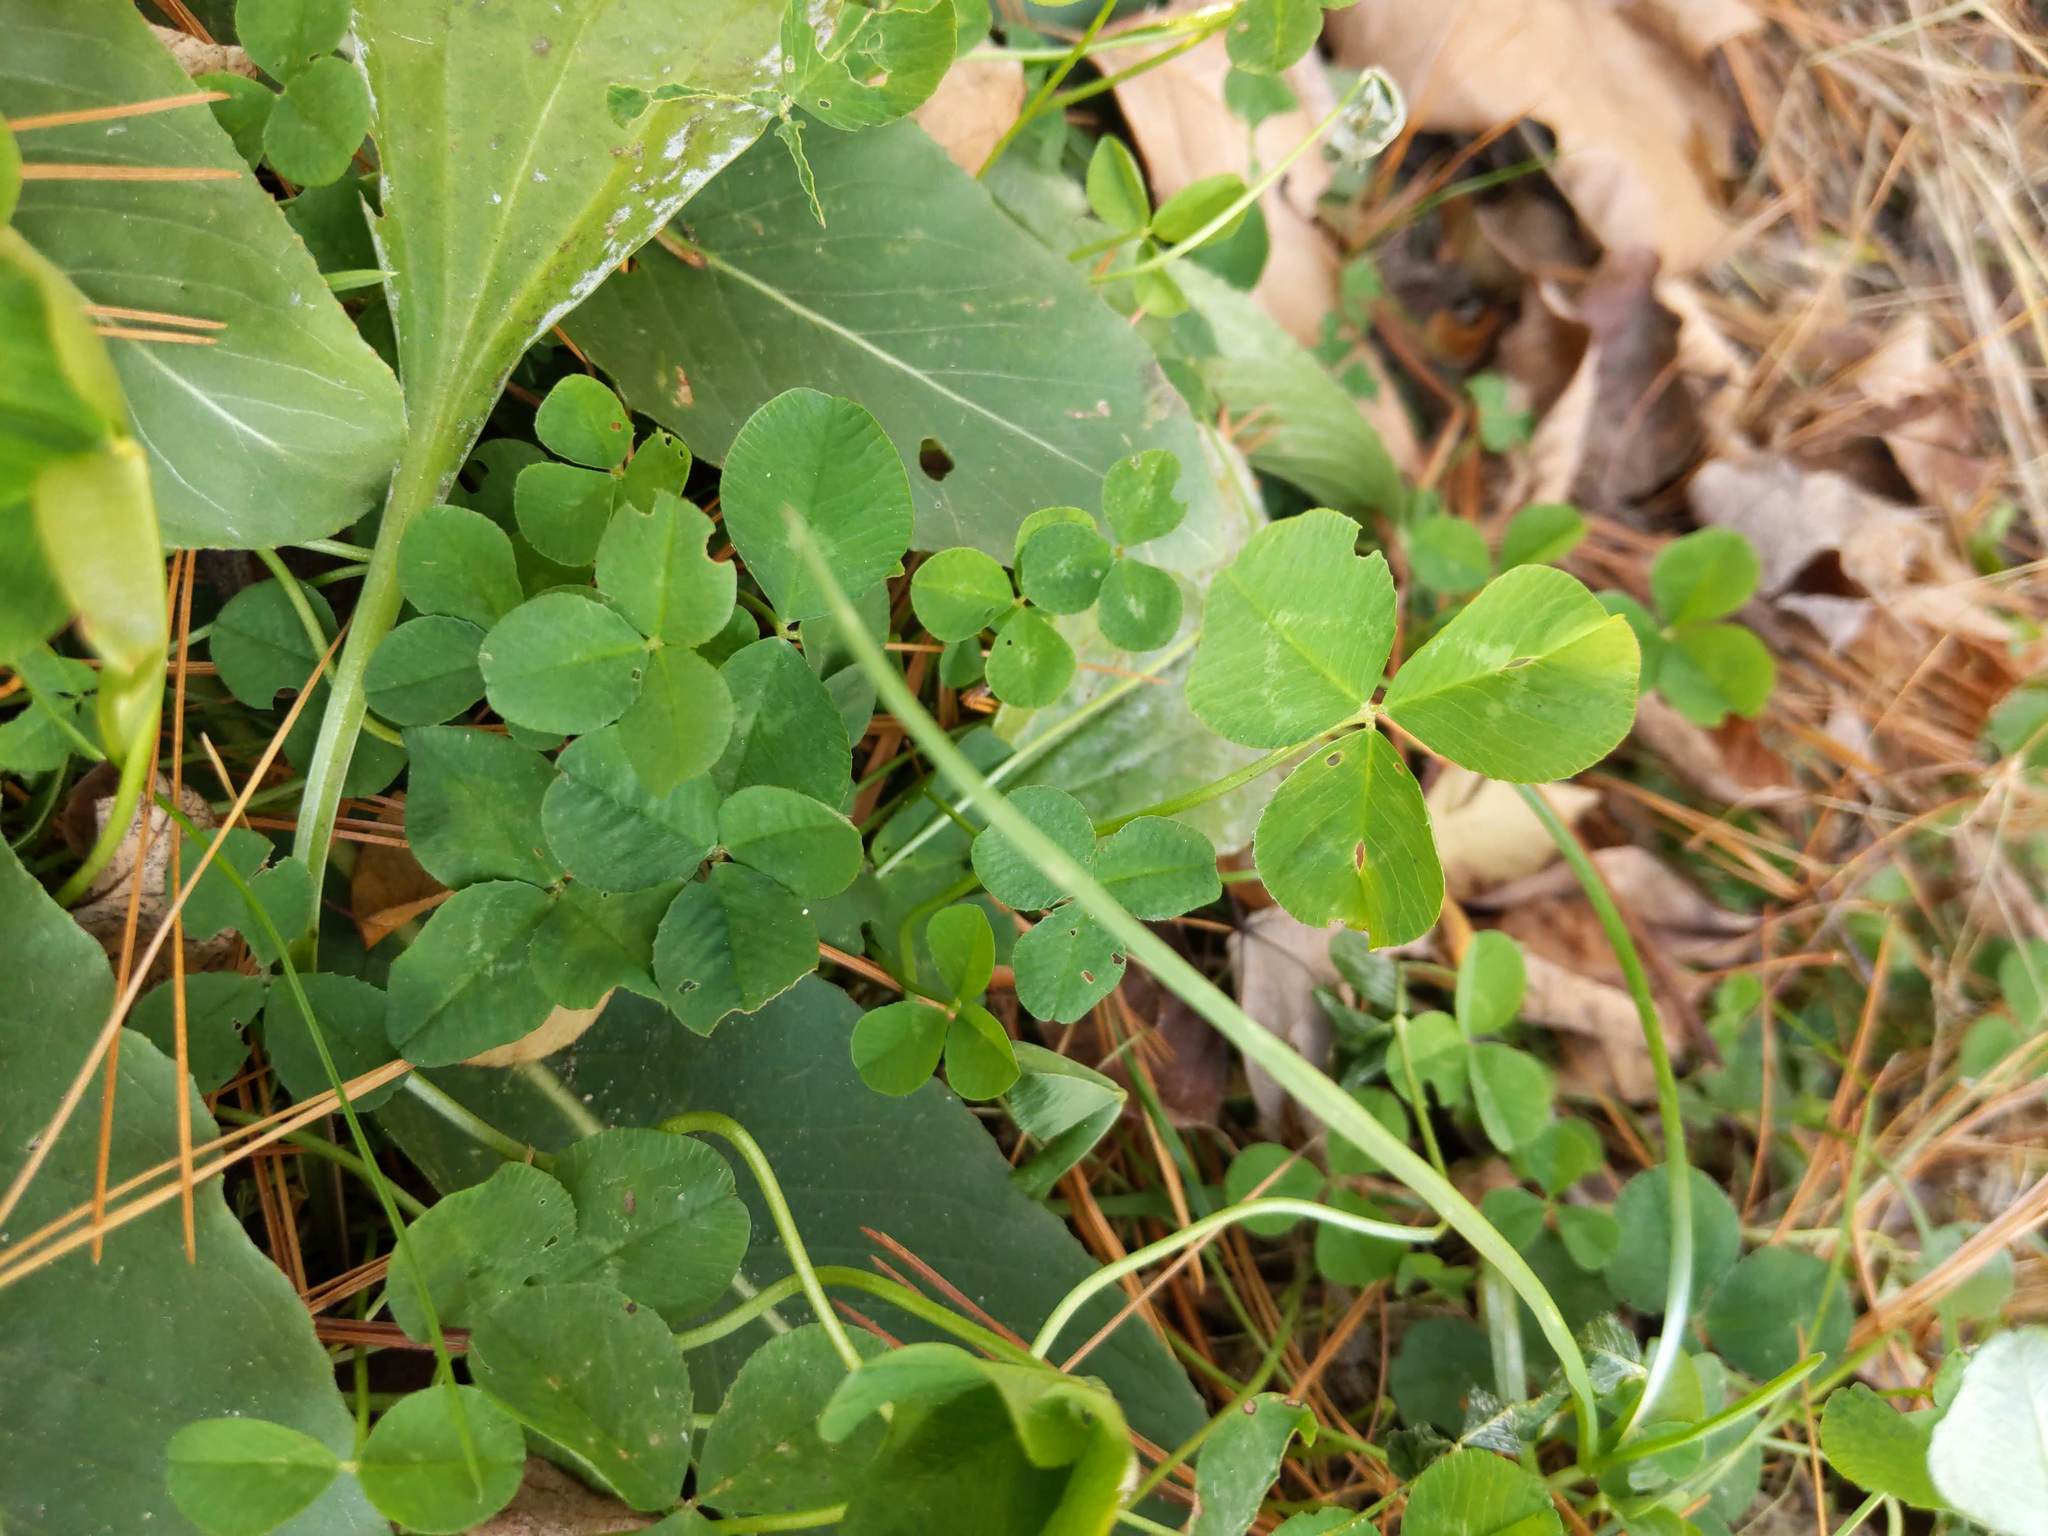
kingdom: Plantae
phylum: Tracheophyta
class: Magnoliopsida
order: Fabales
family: Fabaceae
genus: Trifolium
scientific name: Trifolium repens
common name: White clover
